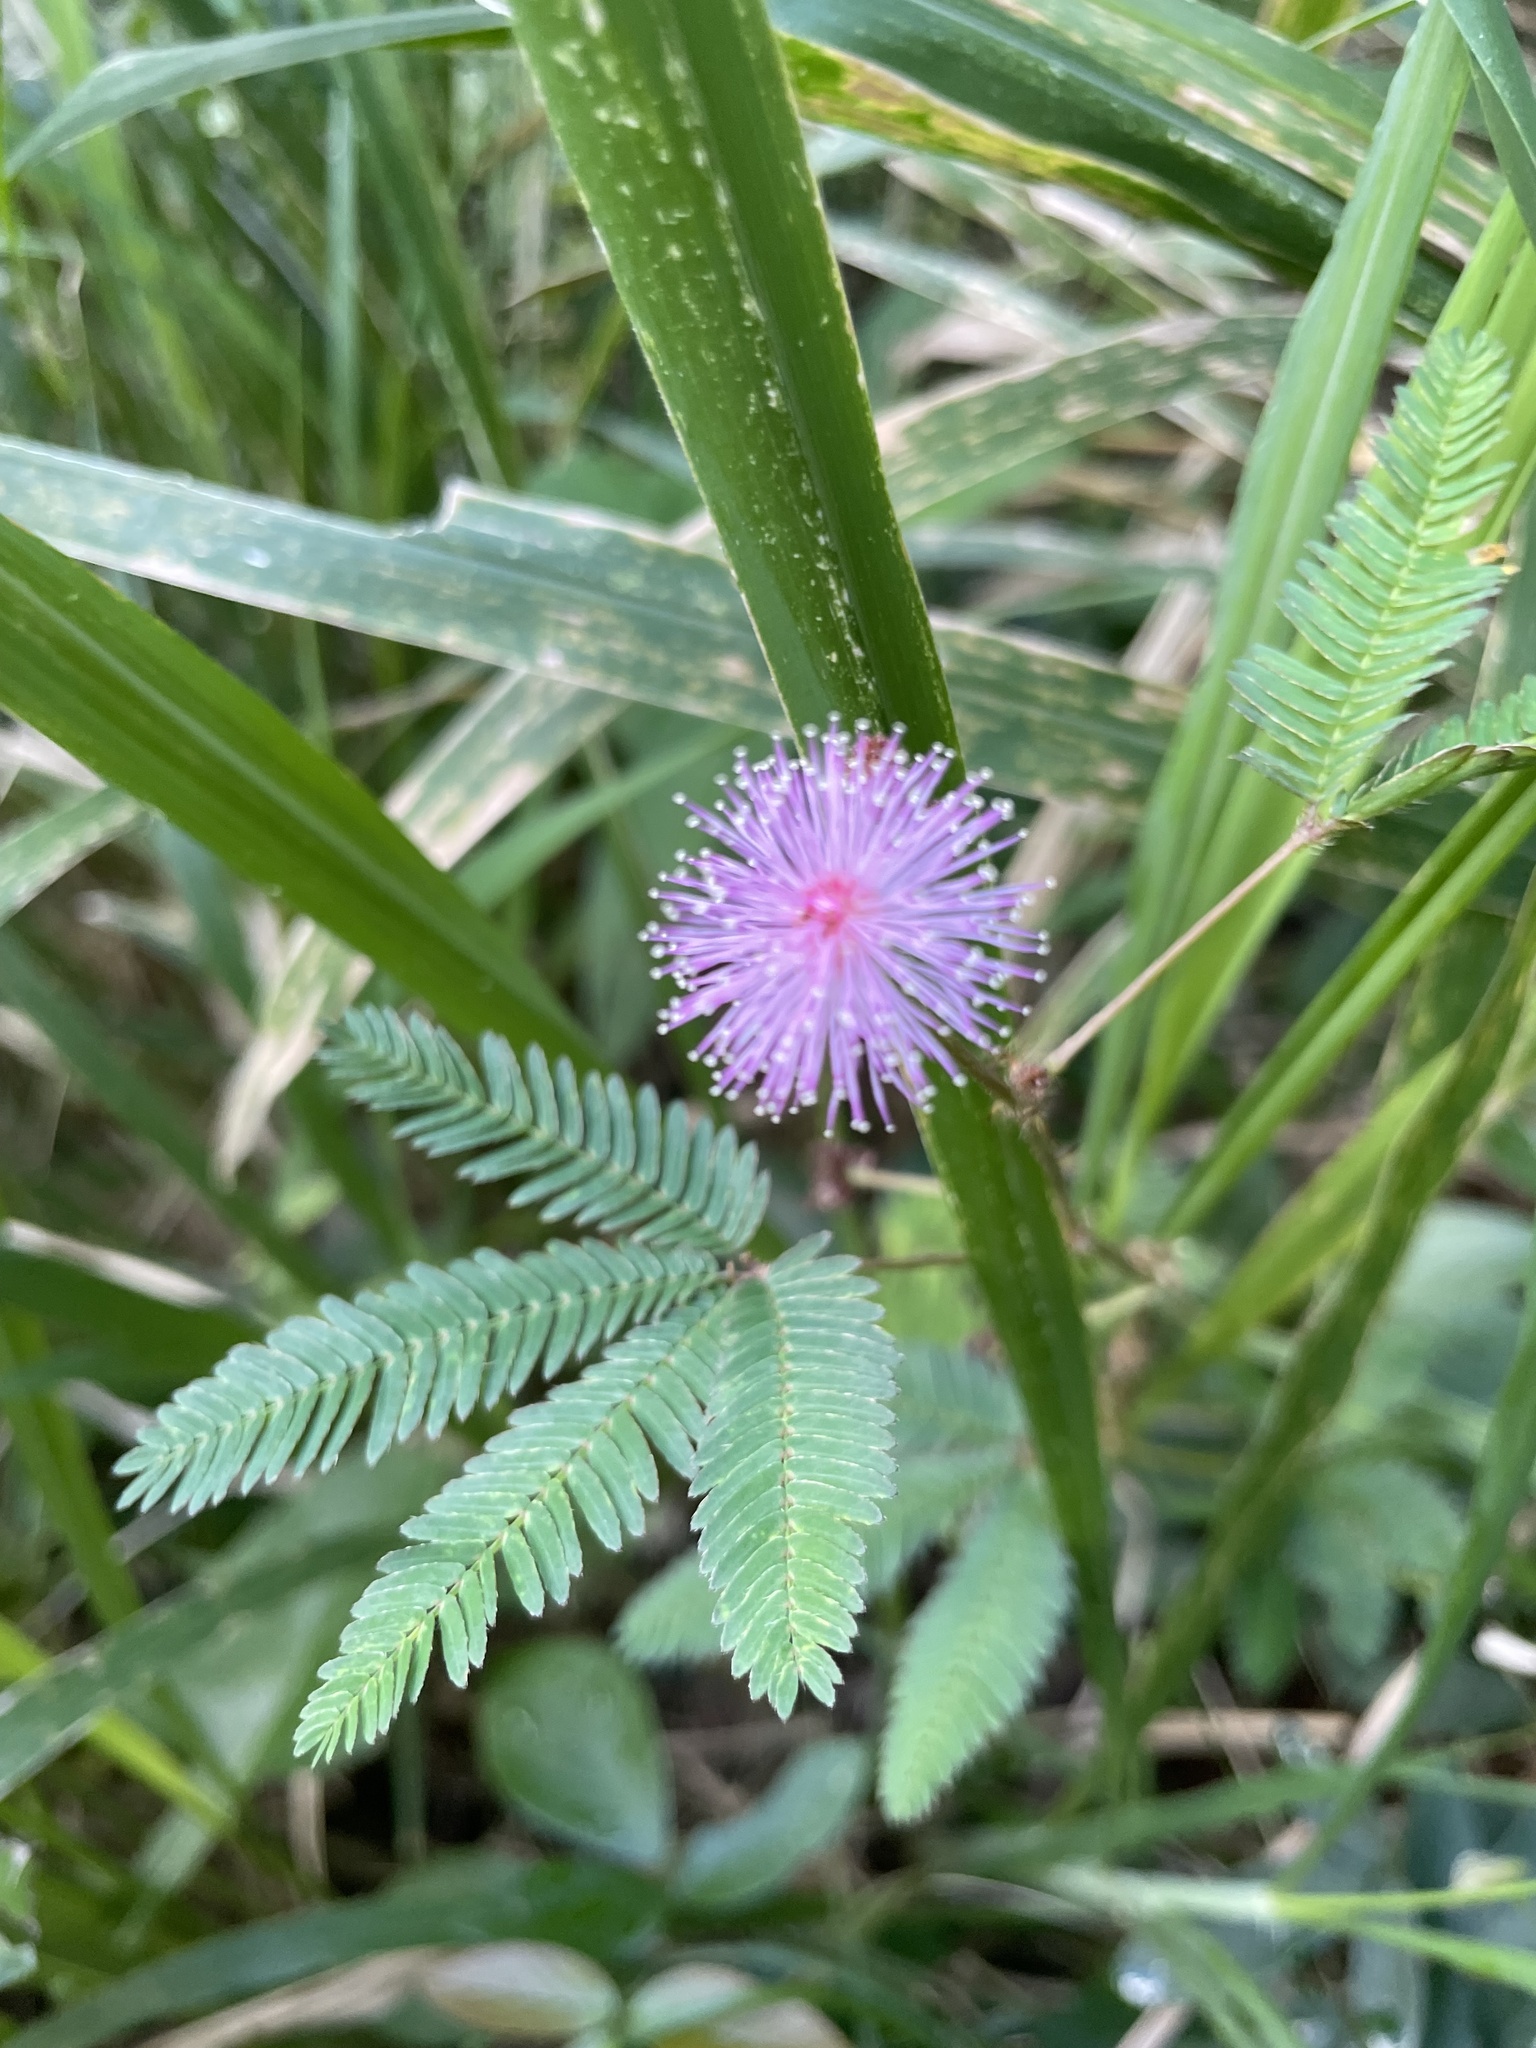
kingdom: Plantae
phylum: Tracheophyta
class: Magnoliopsida
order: Fabales
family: Fabaceae
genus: Mimosa
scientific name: Mimosa pudica
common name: Sensitive plant
